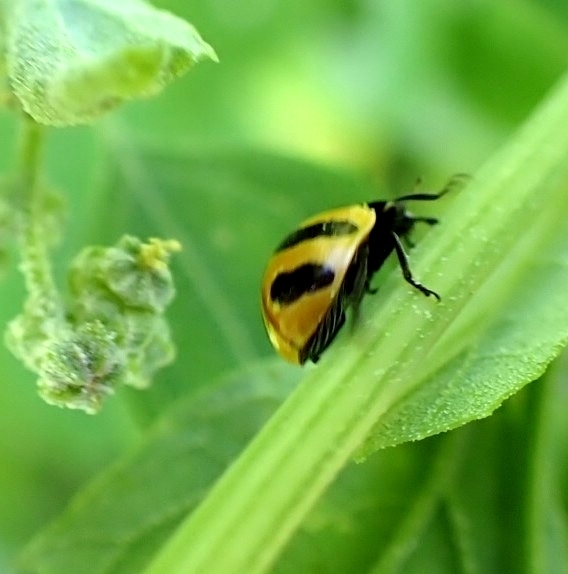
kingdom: Animalia
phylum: Arthropoda
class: Insecta
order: Coleoptera
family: Coccinellidae
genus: Coccinella
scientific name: Coccinella trifasciata
